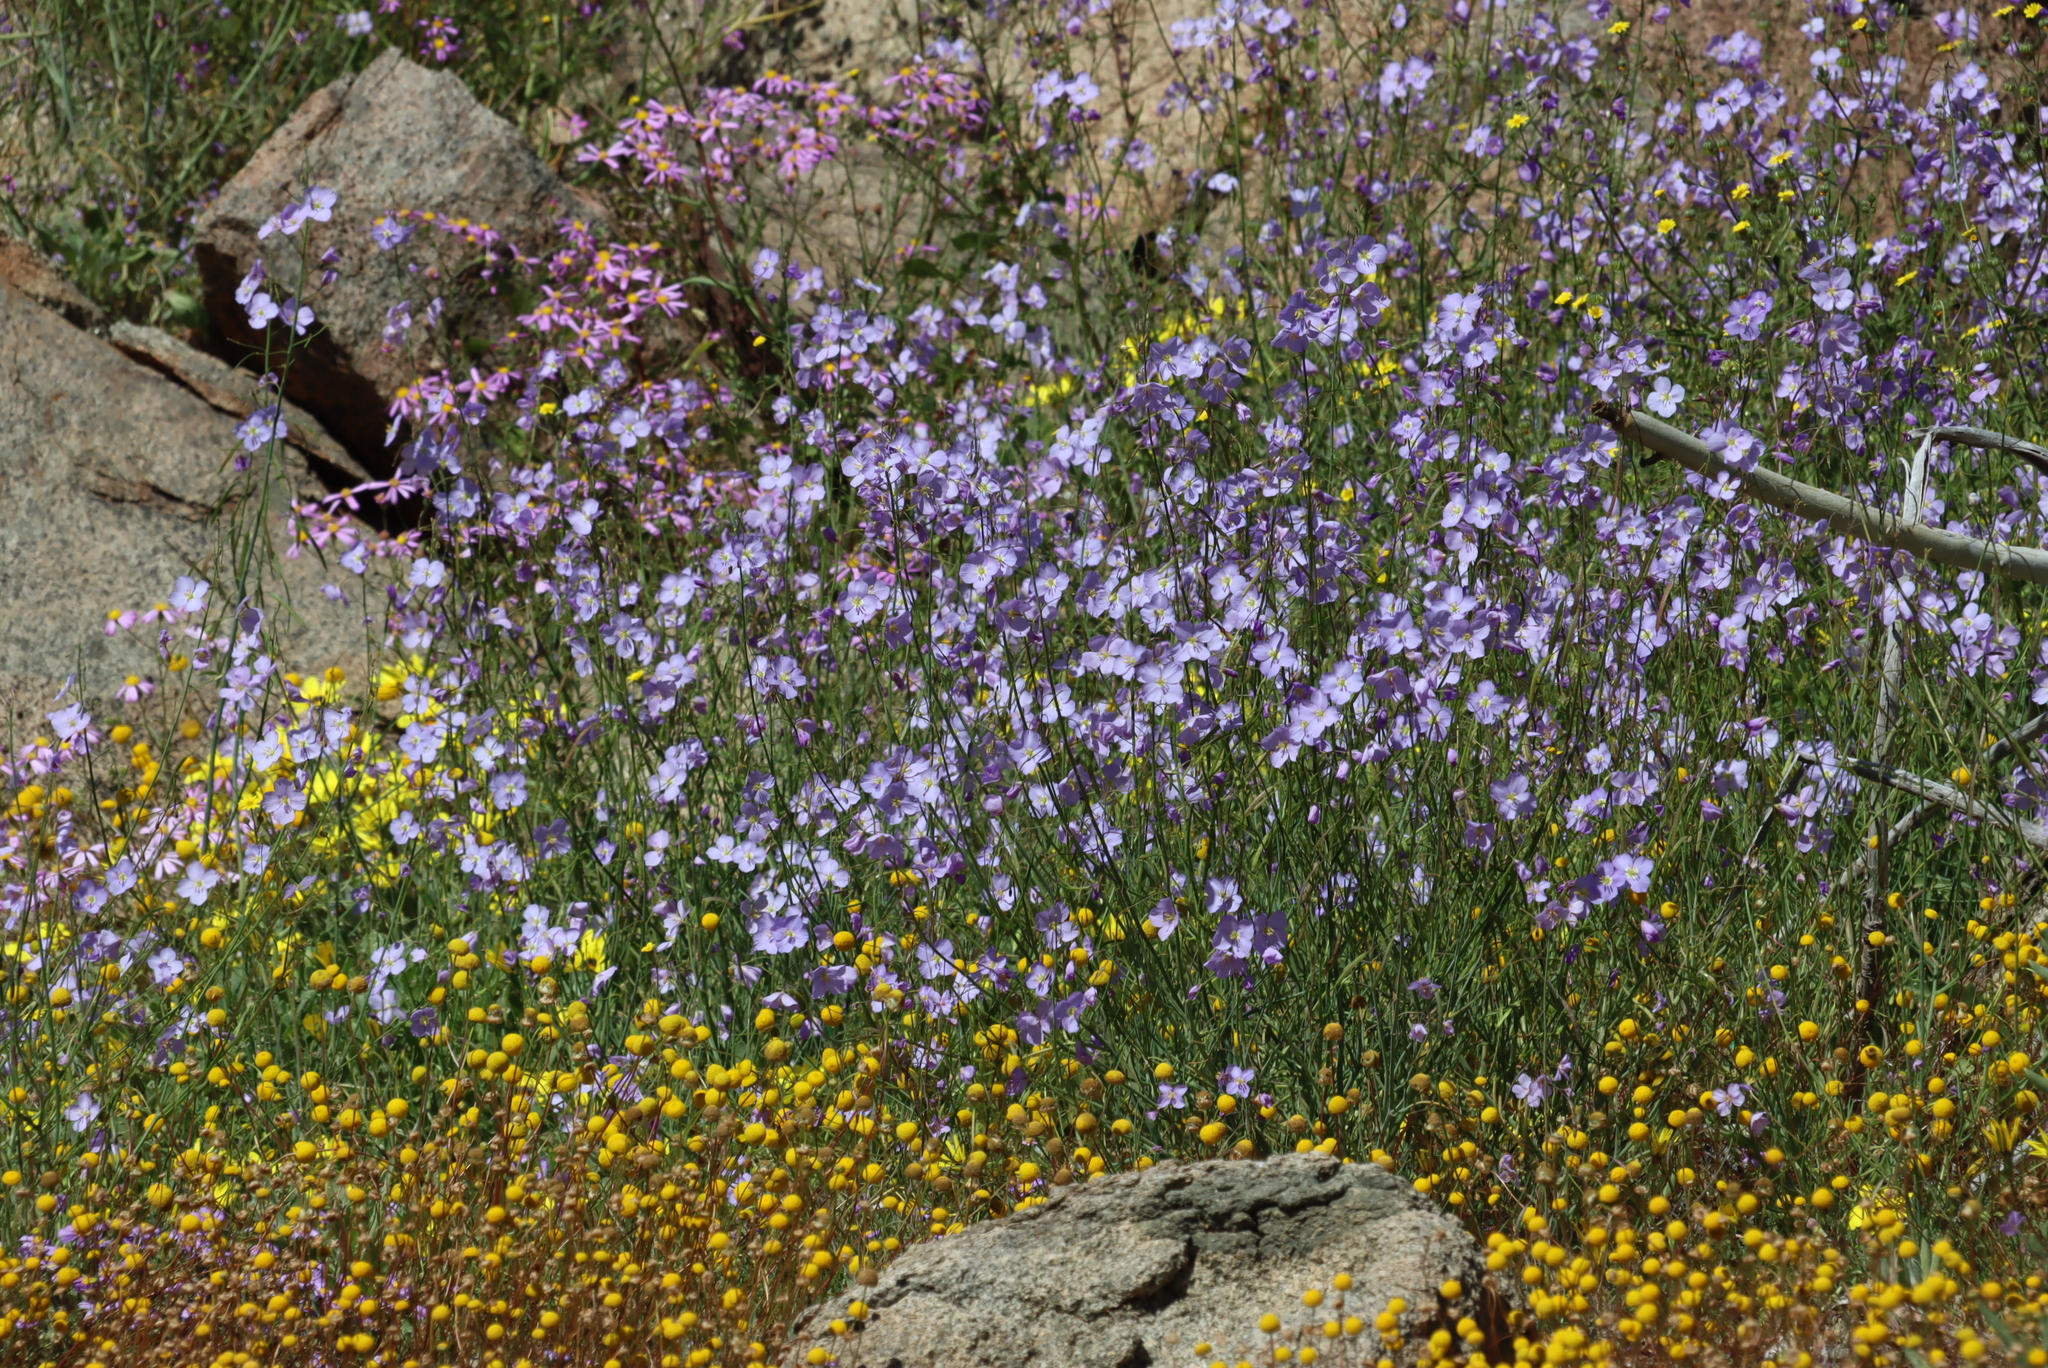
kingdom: Plantae
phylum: Tracheophyta
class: Magnoliopsida
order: Brassicales
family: Brassicaceae
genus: Heliophila
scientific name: Heliophila trifurca
